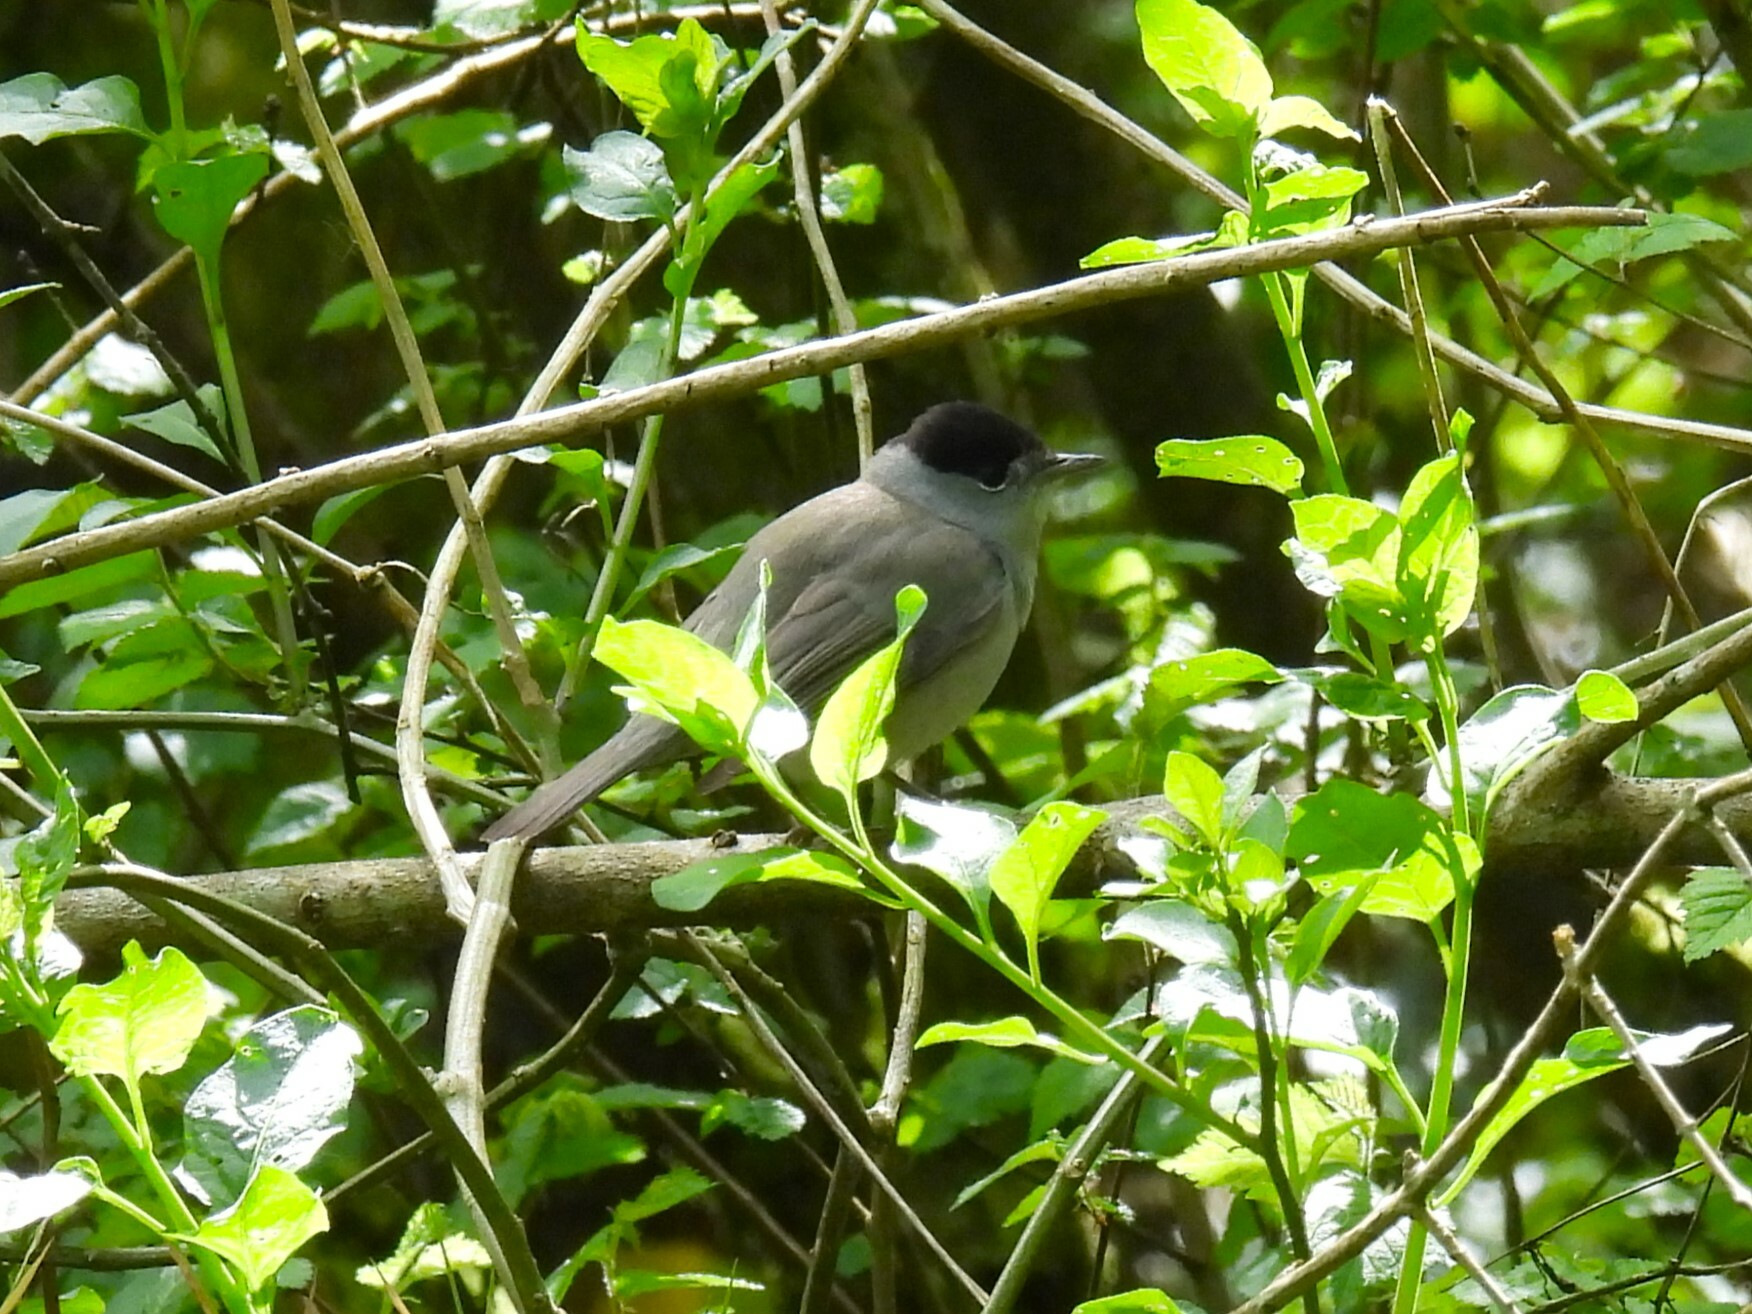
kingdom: Animalia
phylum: Chordata
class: Aves
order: Passeriformes
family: Sylviidae
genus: Sylvia
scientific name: Sylvia atricapilla
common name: Eurasian blackcap
